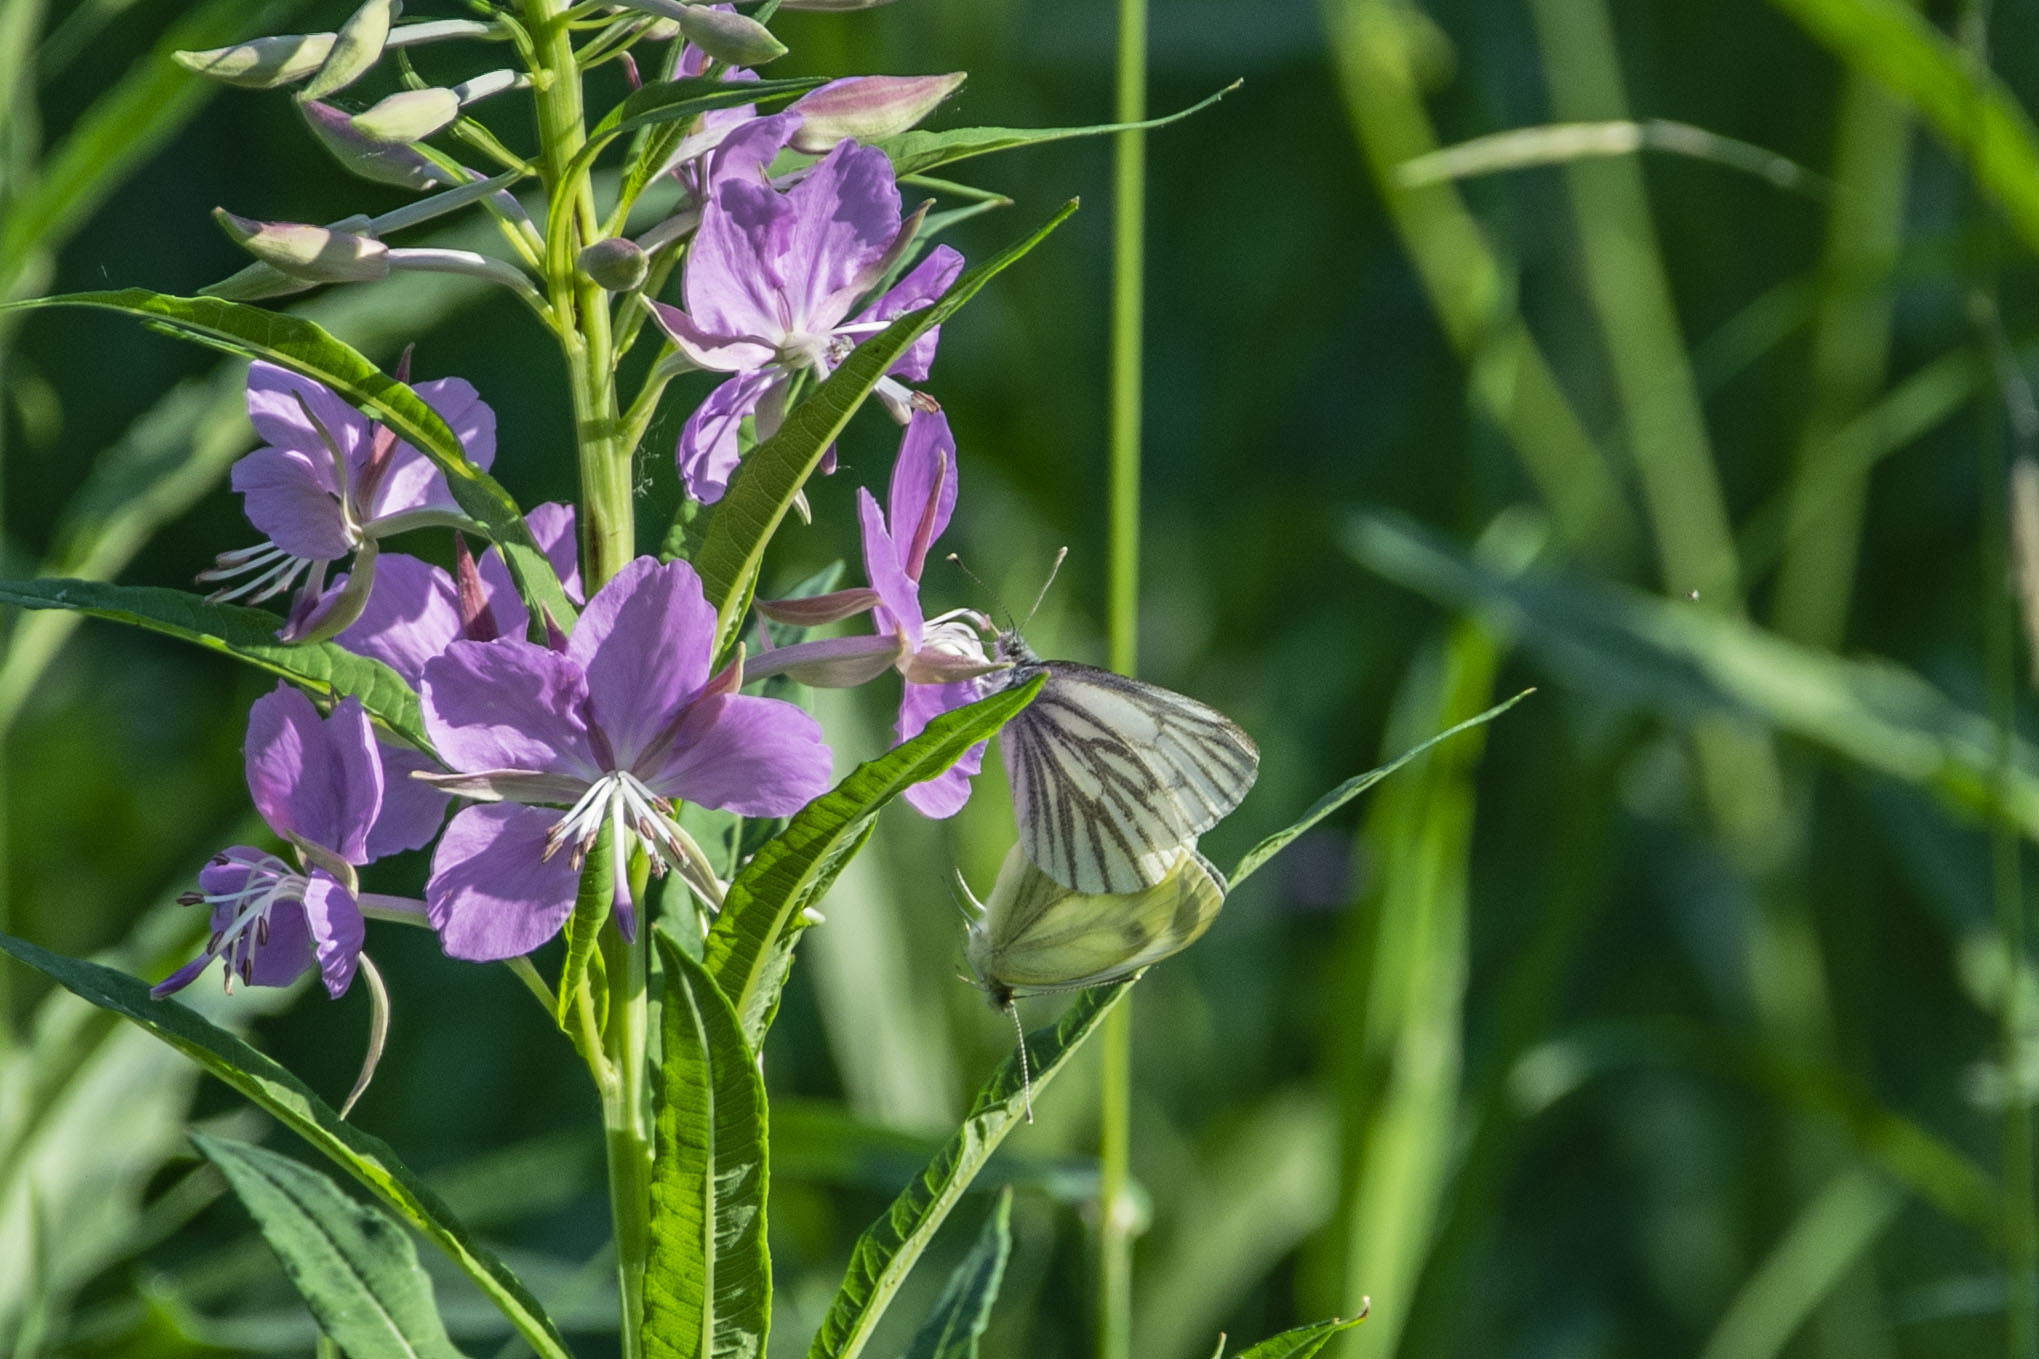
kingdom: Animalia
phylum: Arthropoda
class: Insecta
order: Lepidoptera
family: Pieridae
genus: Pieris
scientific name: Pieris napi
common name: Green-veined white
